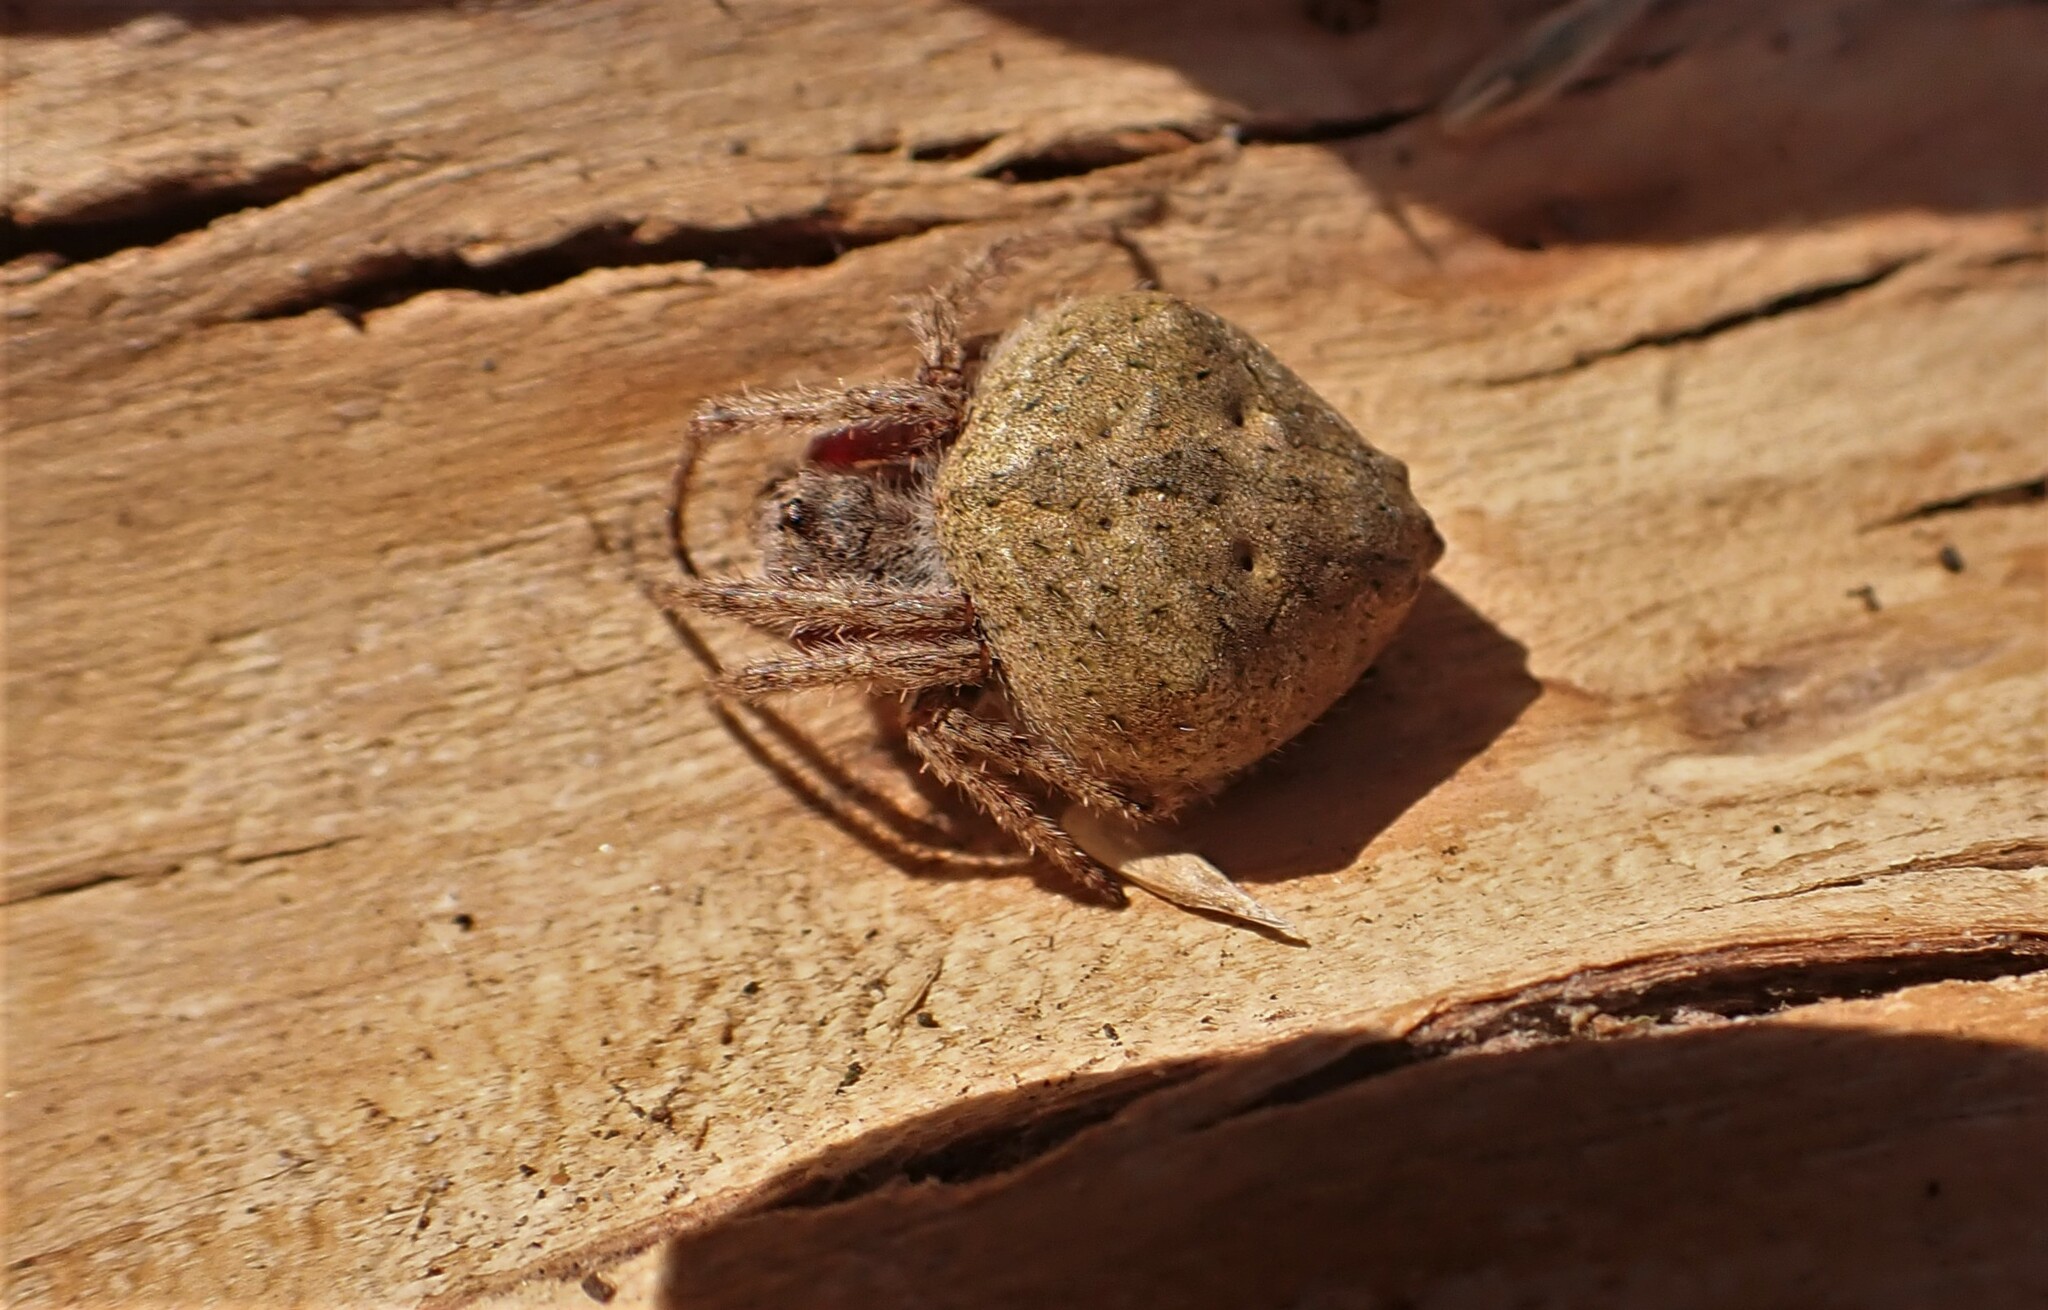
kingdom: Animalia
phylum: Arthropoda
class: Arachnida
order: Araneae
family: Araneidae
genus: Eriophora
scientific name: Eriophora pustulosa
